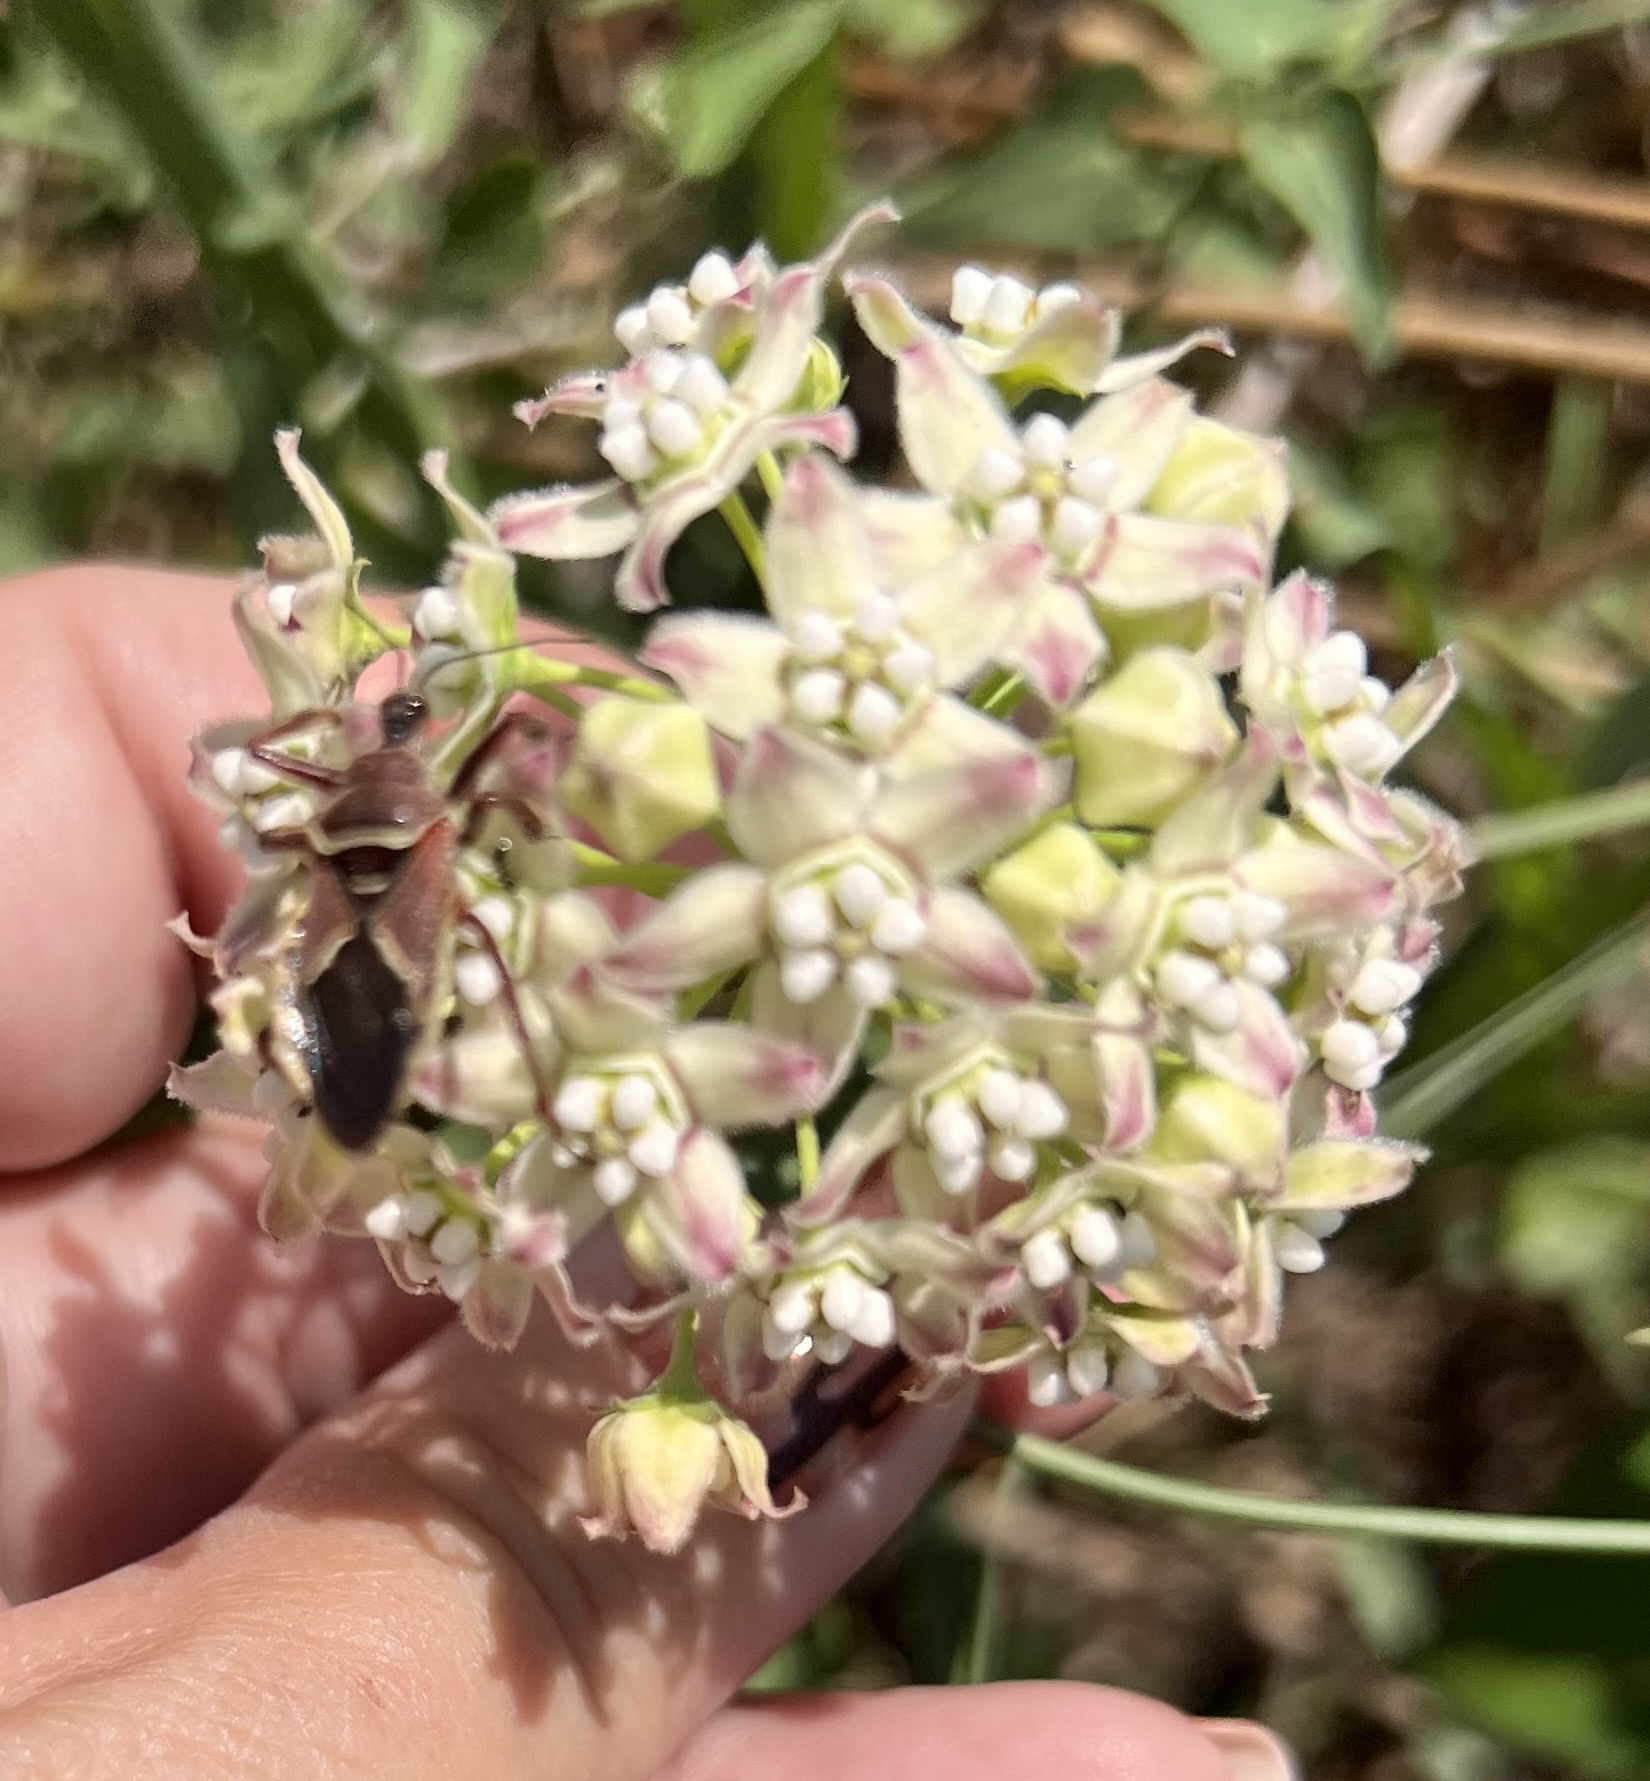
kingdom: Plantae
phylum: Tracheophyta
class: Magnoliopsida
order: Gentianales
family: Apocynaceae
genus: Funastrum
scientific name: Funastrum cynanchoides
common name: Climbing-milkweed
